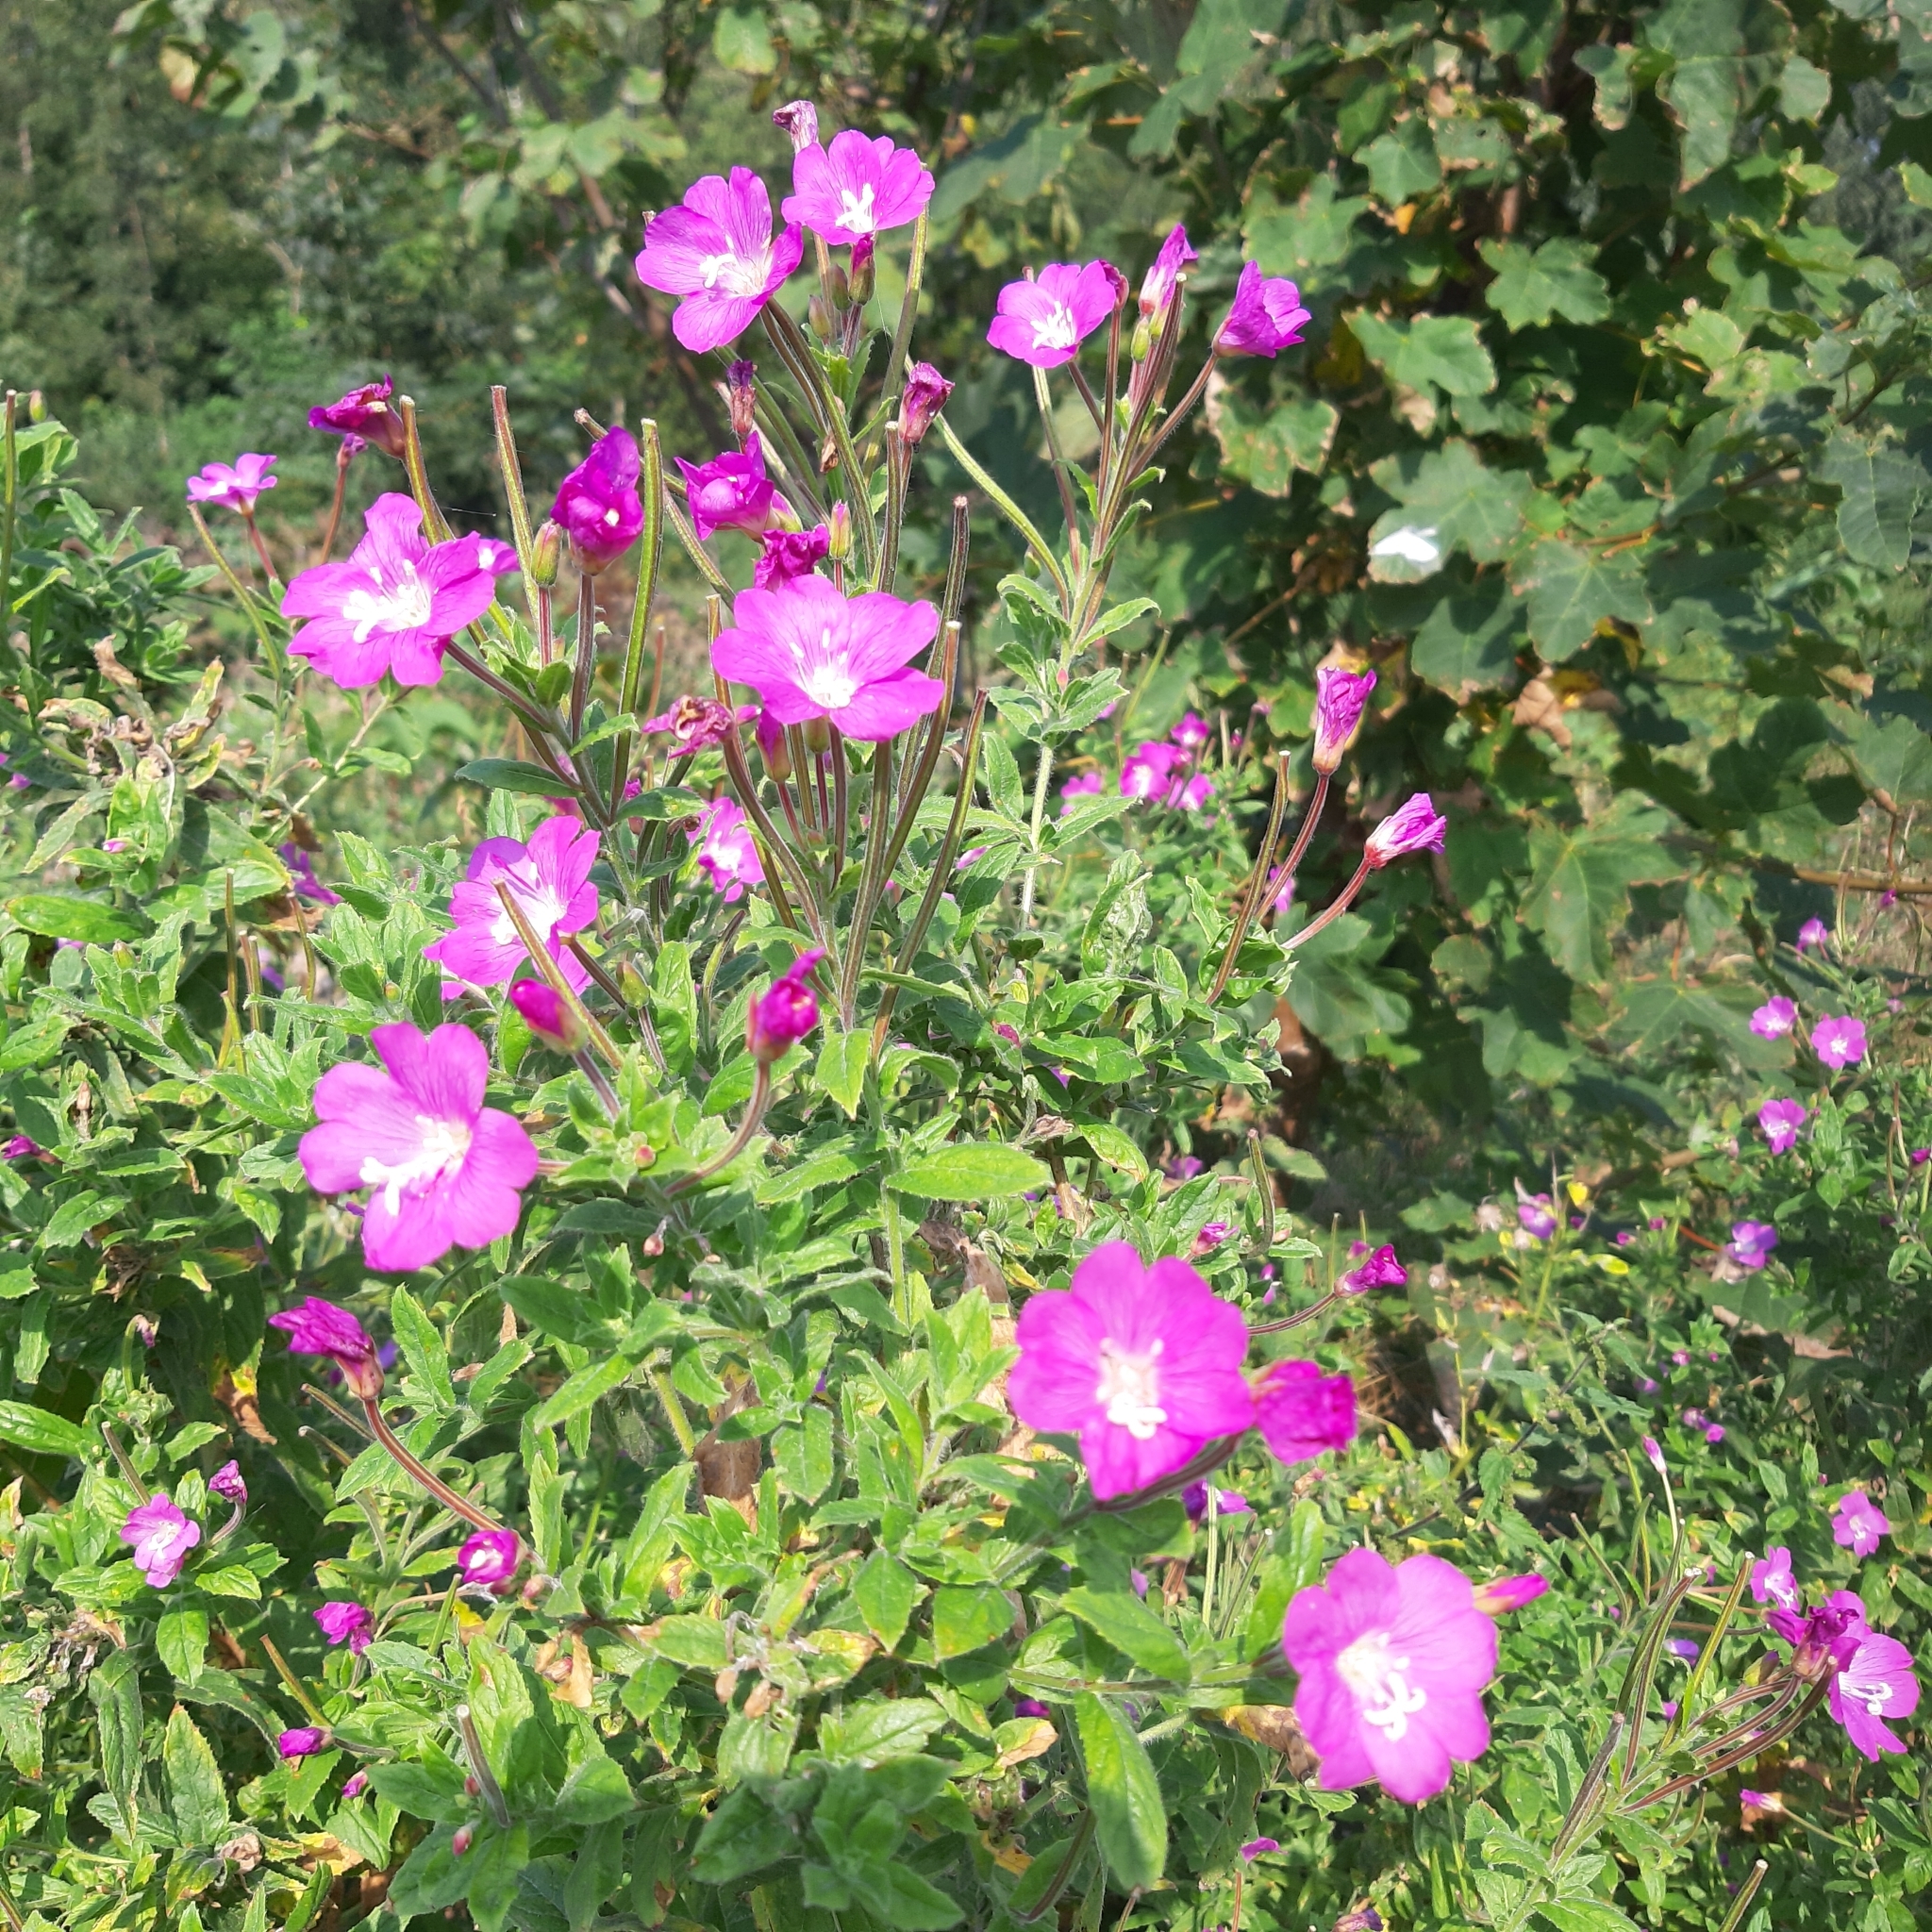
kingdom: Plantae
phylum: Tracheophyta
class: Magnoliopsida
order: Myrtales
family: Onagraceae
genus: Epilobium
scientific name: Epilobium hirsutum
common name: Great willowherb
